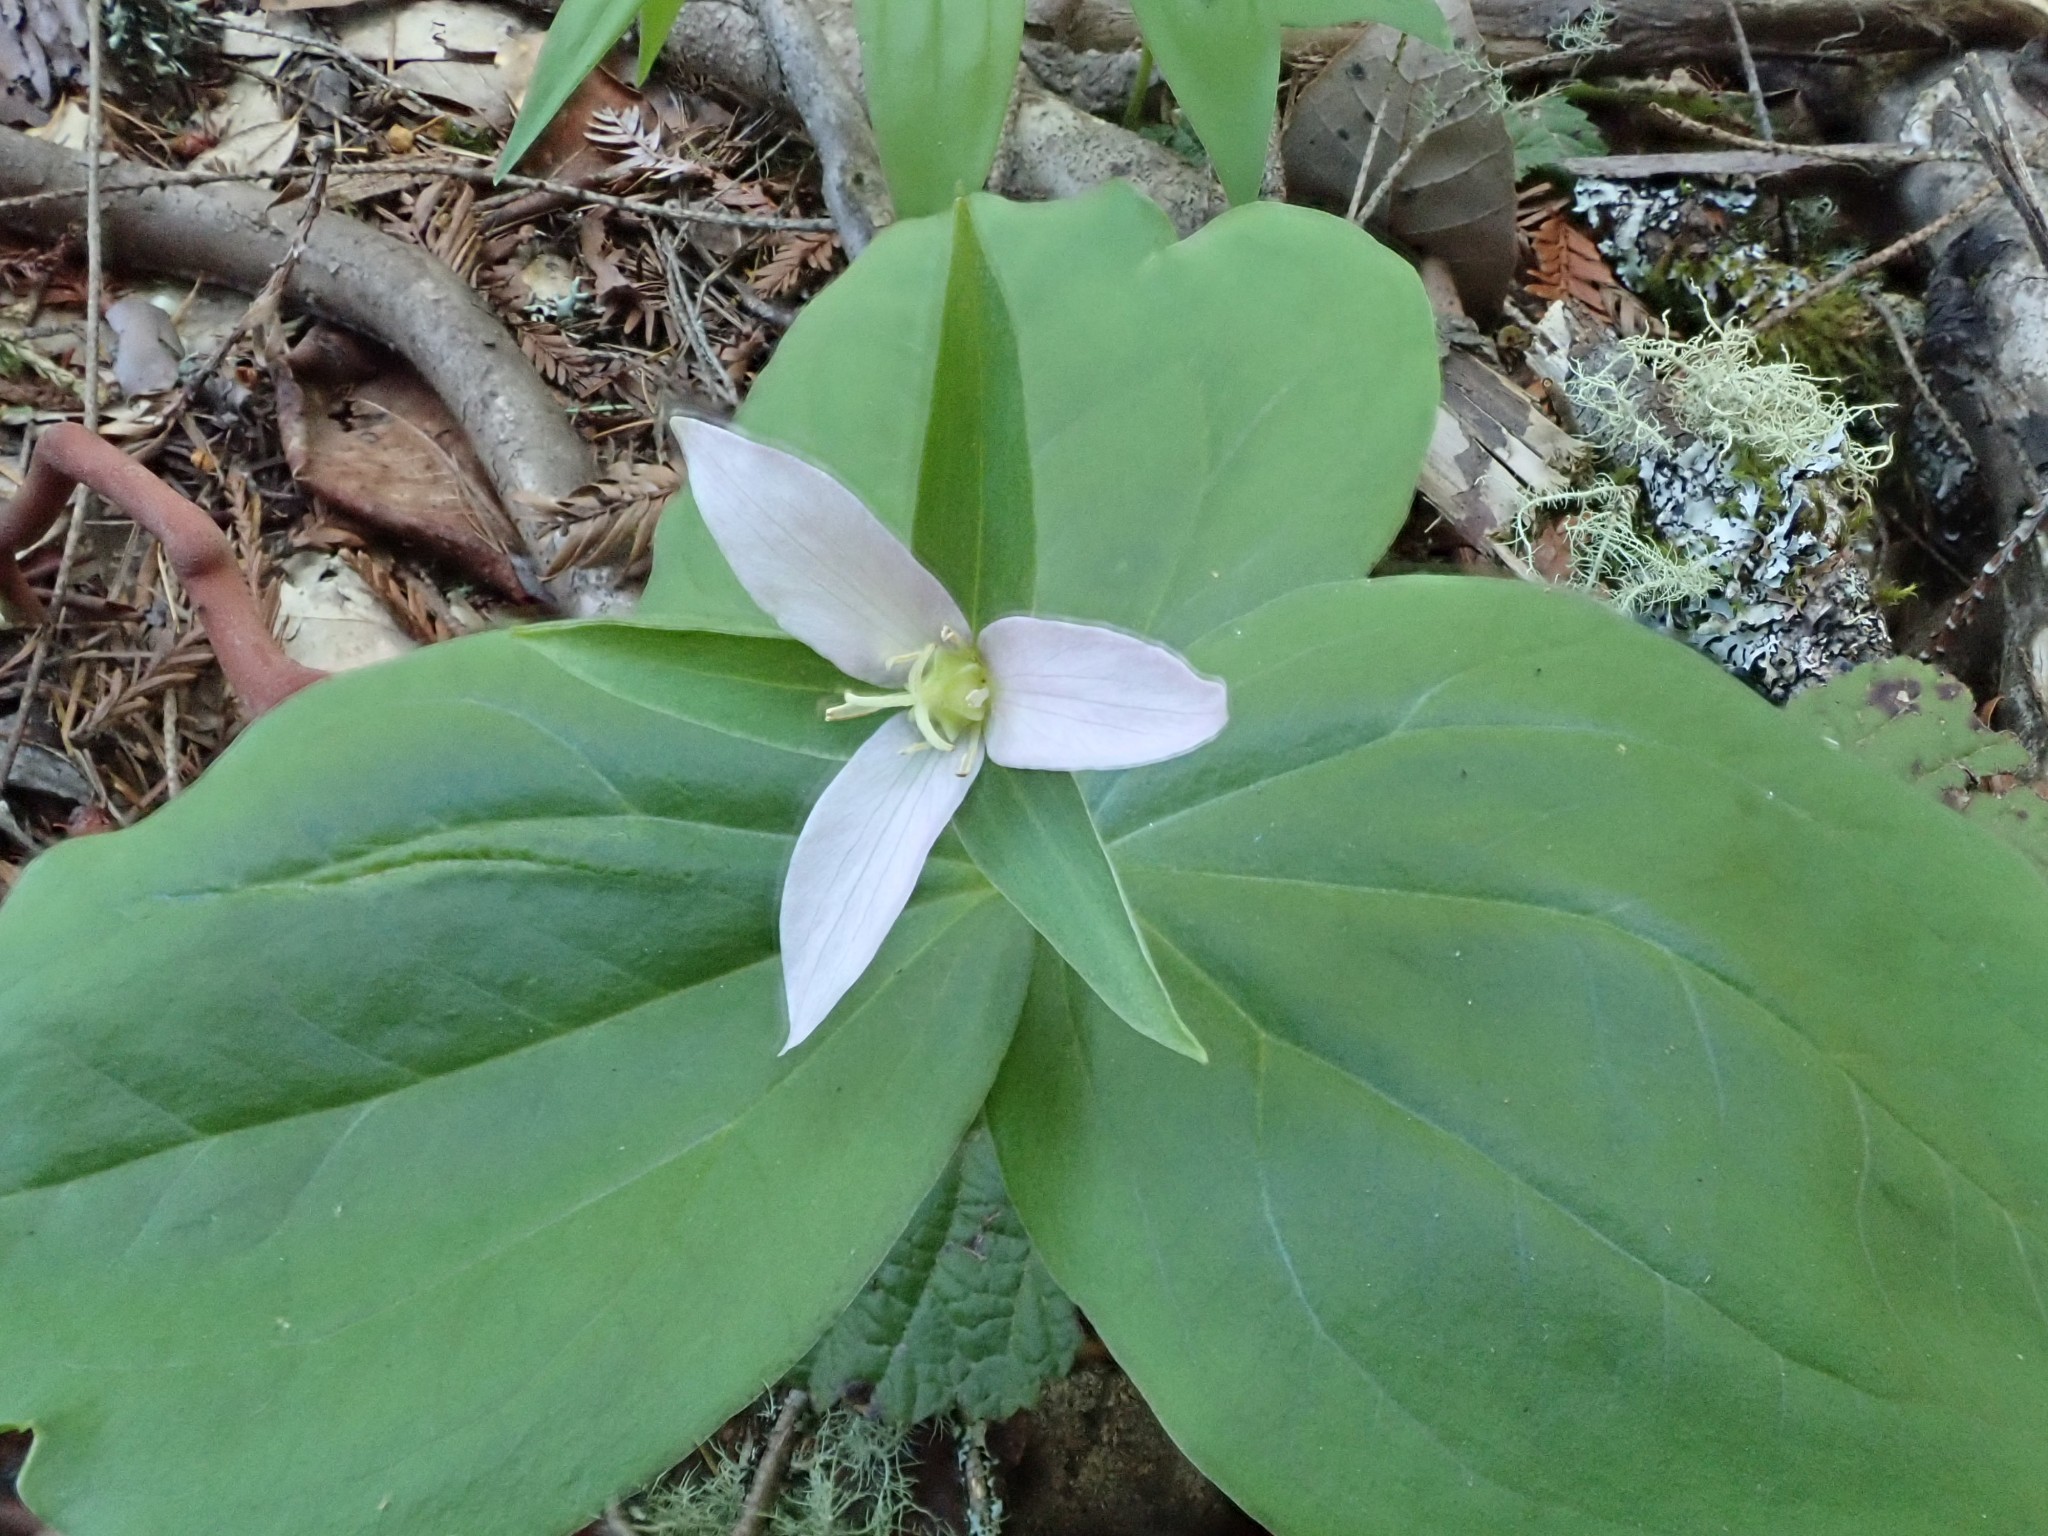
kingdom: Plantae
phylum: Tracheophyta
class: Liliopsida
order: Liliales
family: Melanthiaceae
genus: Trillium
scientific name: Trillium ovatum
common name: Pacific trillium
